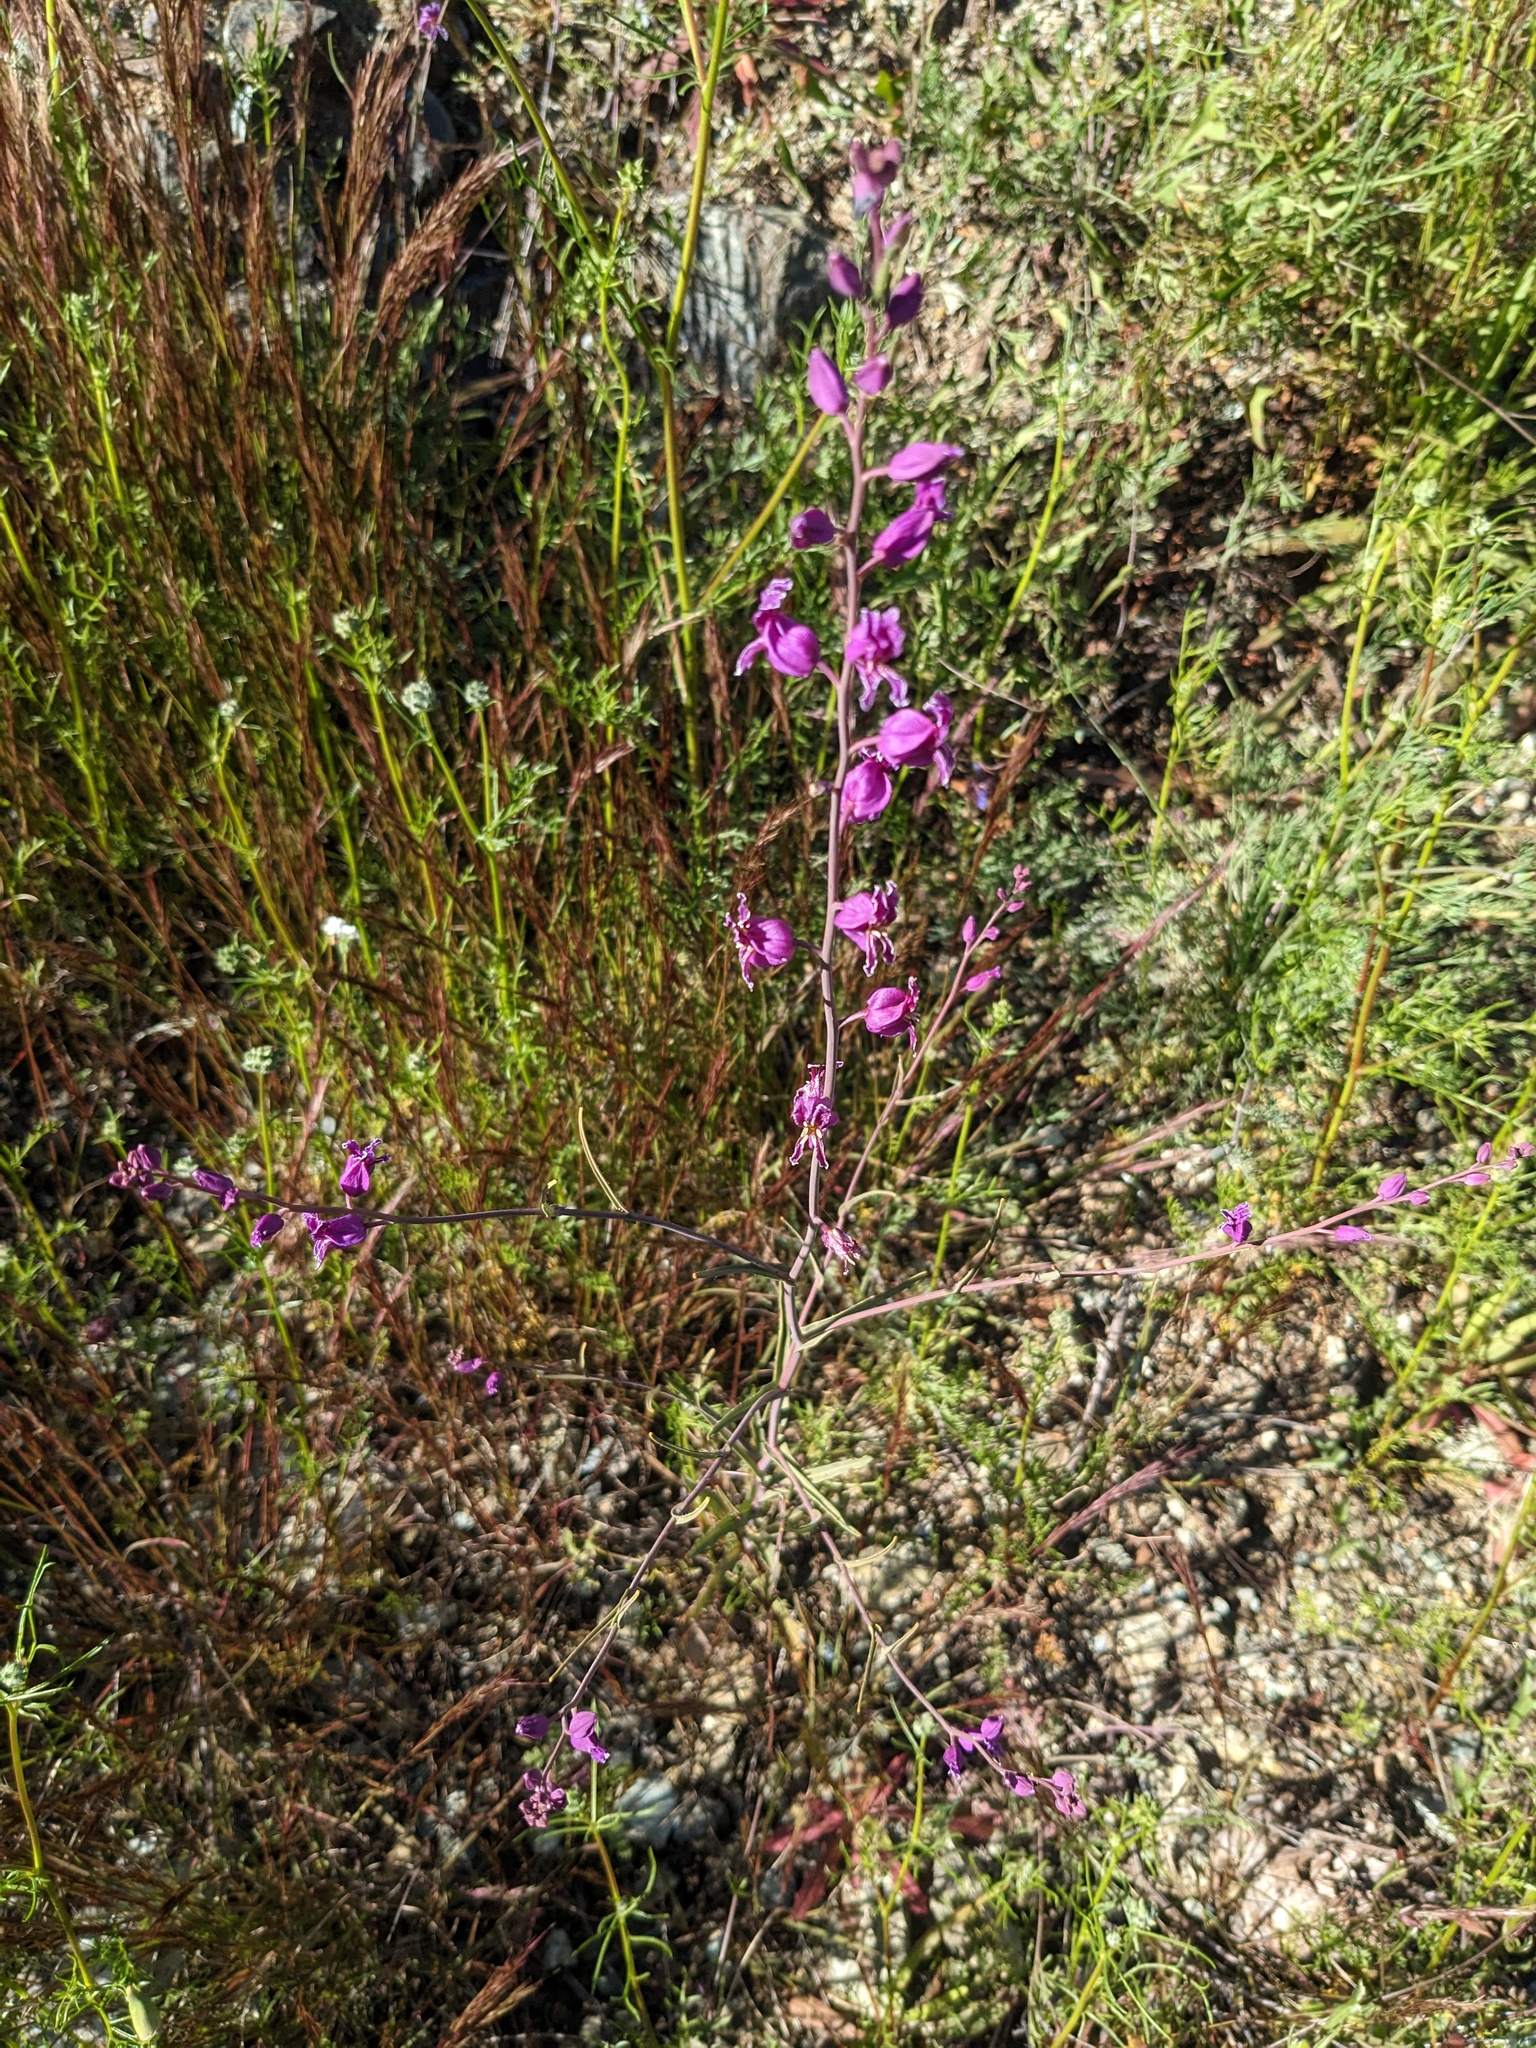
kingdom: Plantae
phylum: Tracheophyta
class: Magnoliopsida
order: Brassicales
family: Brassicaceae
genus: Streptanthus
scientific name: Streptanthus glandulosus
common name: Jewel-flower
